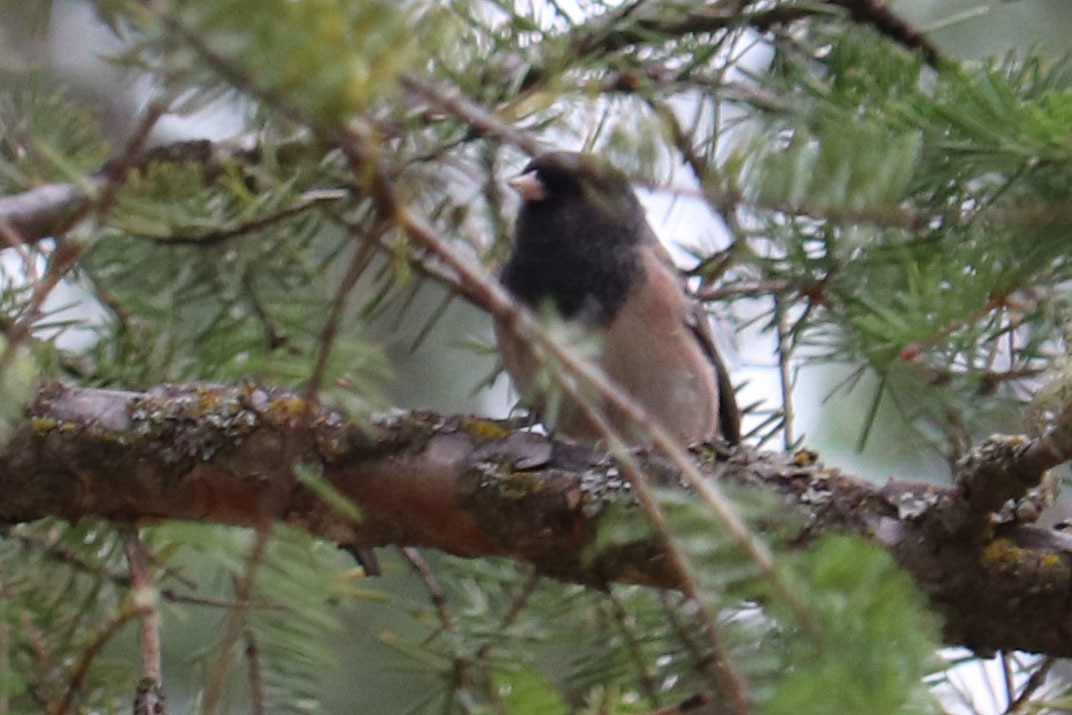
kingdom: Animalia
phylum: Chordata
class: Aves
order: Passeriformes
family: Passerellidae
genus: Junco
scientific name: Junco hyemalis
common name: Dark-eyed junco
